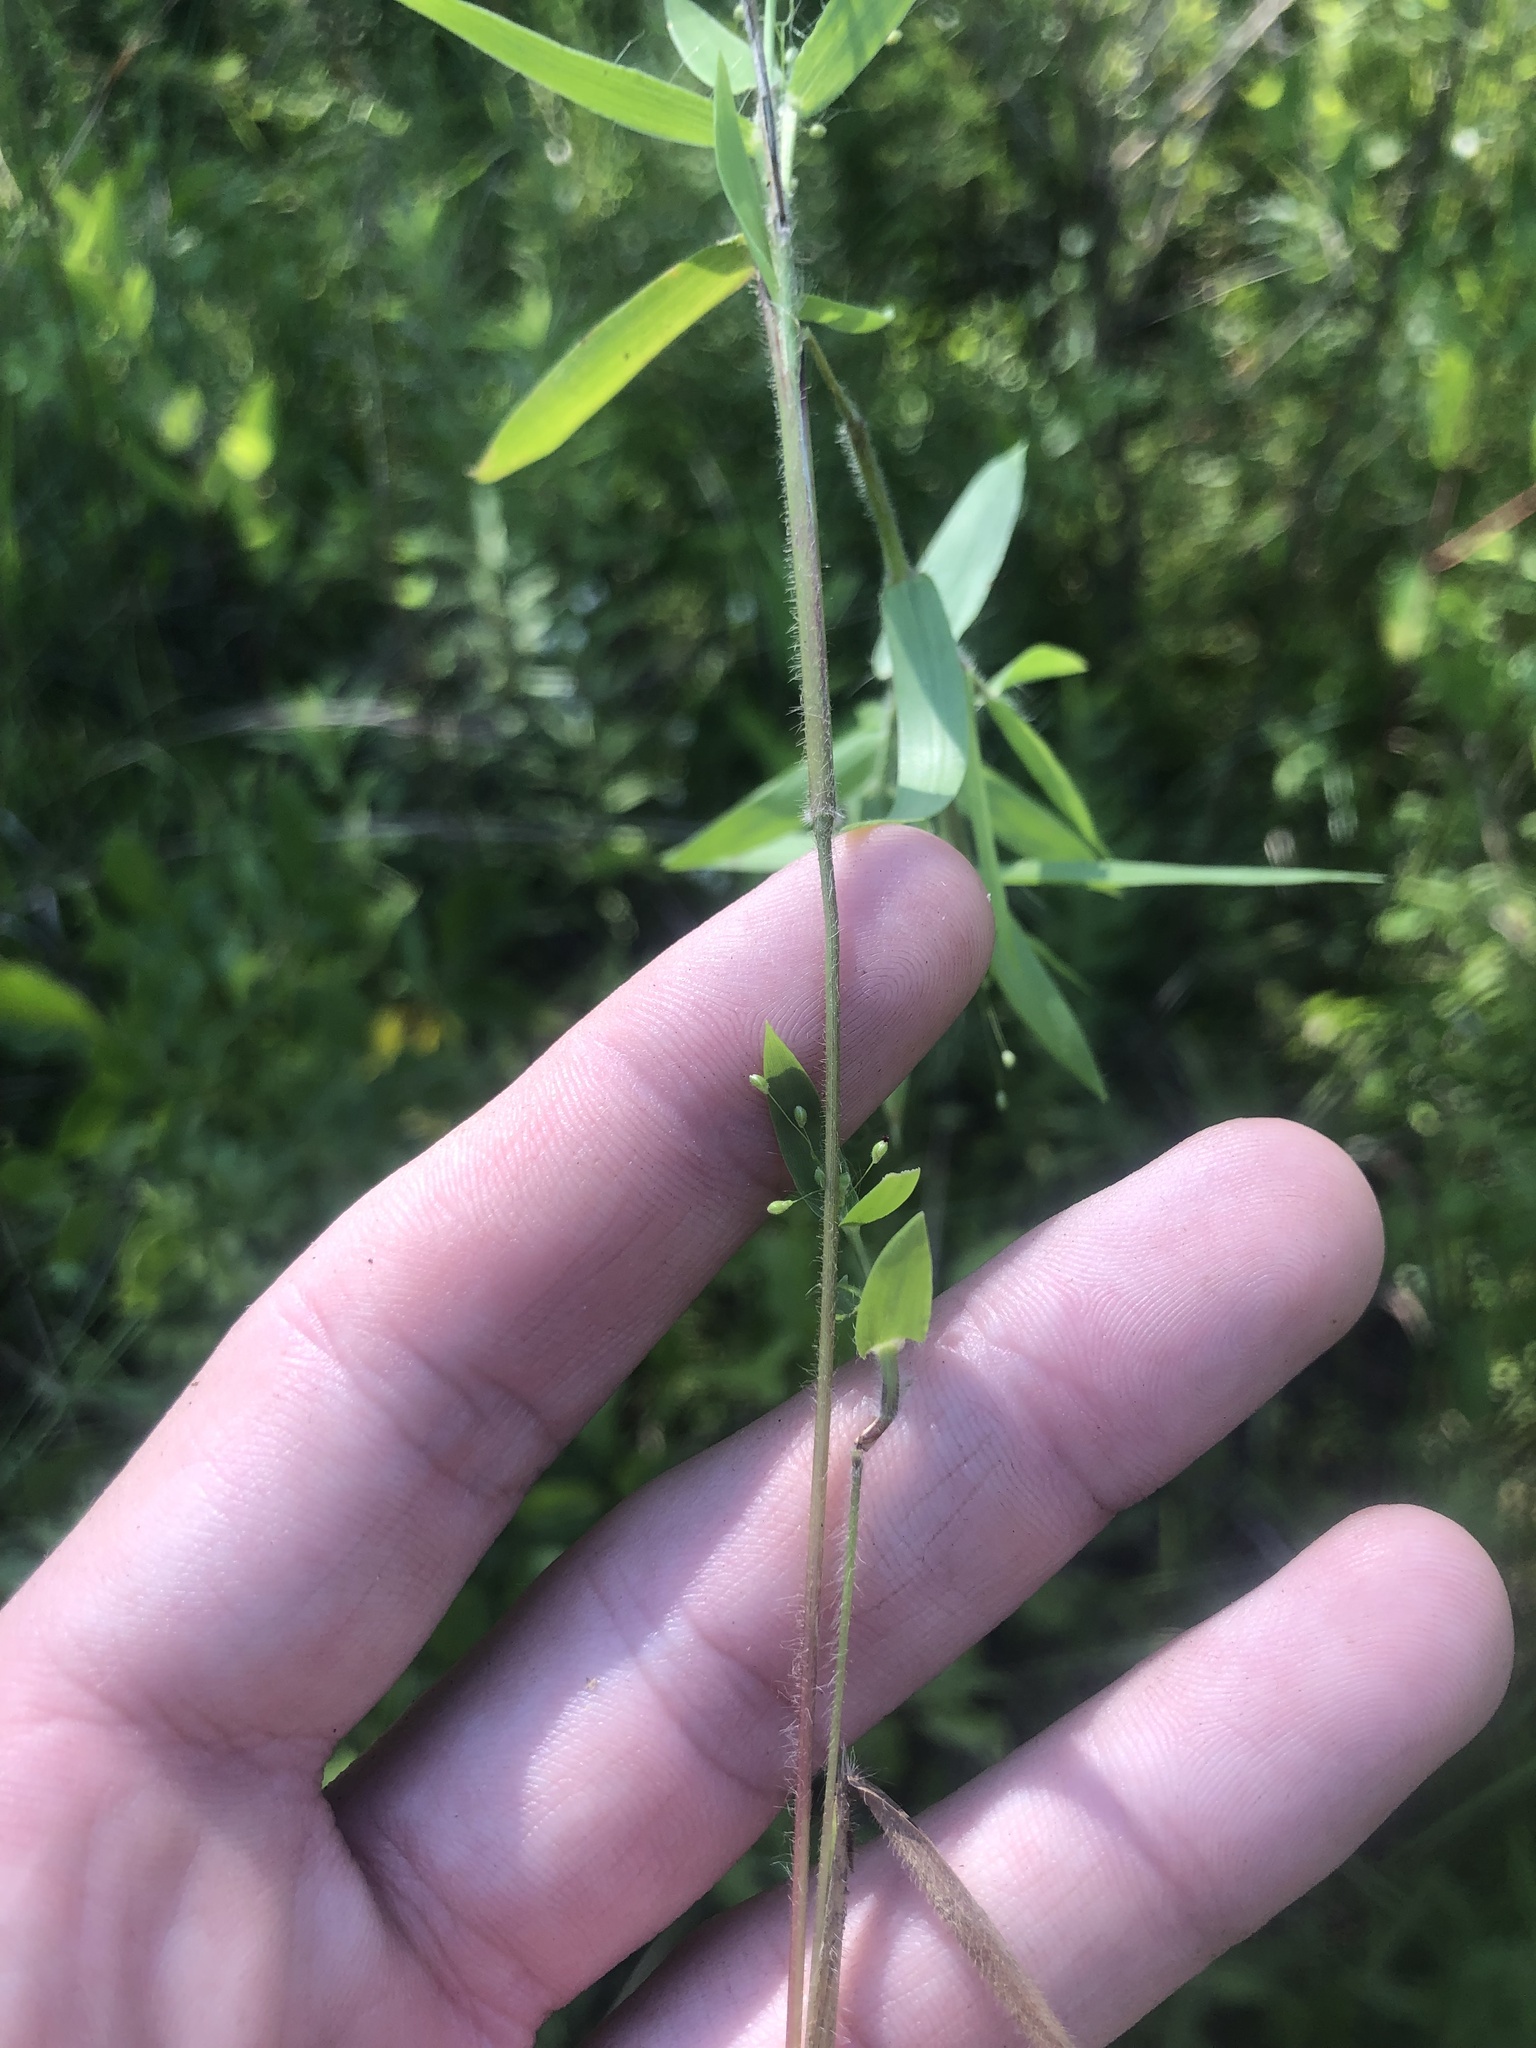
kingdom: Plantae
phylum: Tracheophyta
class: Liliopsida
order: Poales
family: Poaceae
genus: Dichanthelium
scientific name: Dichanthelium lanuginosum
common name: Woolly panicgrass
